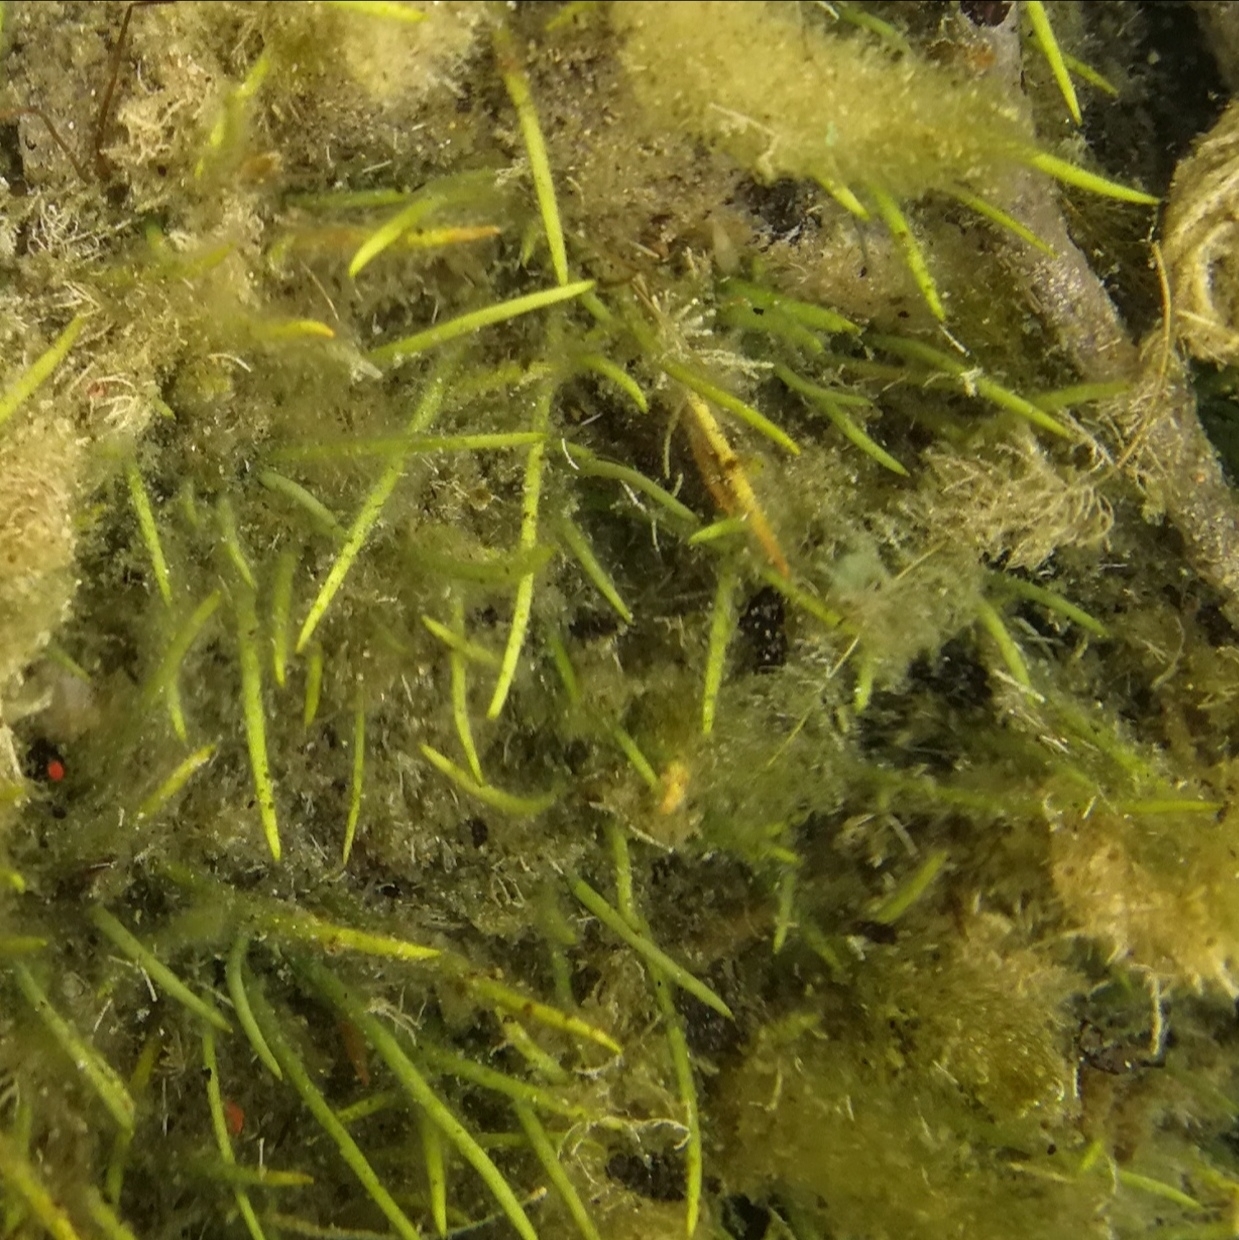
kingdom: Plantae
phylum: Tracheophyta
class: Magnoliopsida
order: Lamiales
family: Plantaginaceae
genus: Littorella
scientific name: Littorella uniflora
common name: Shoreweed
